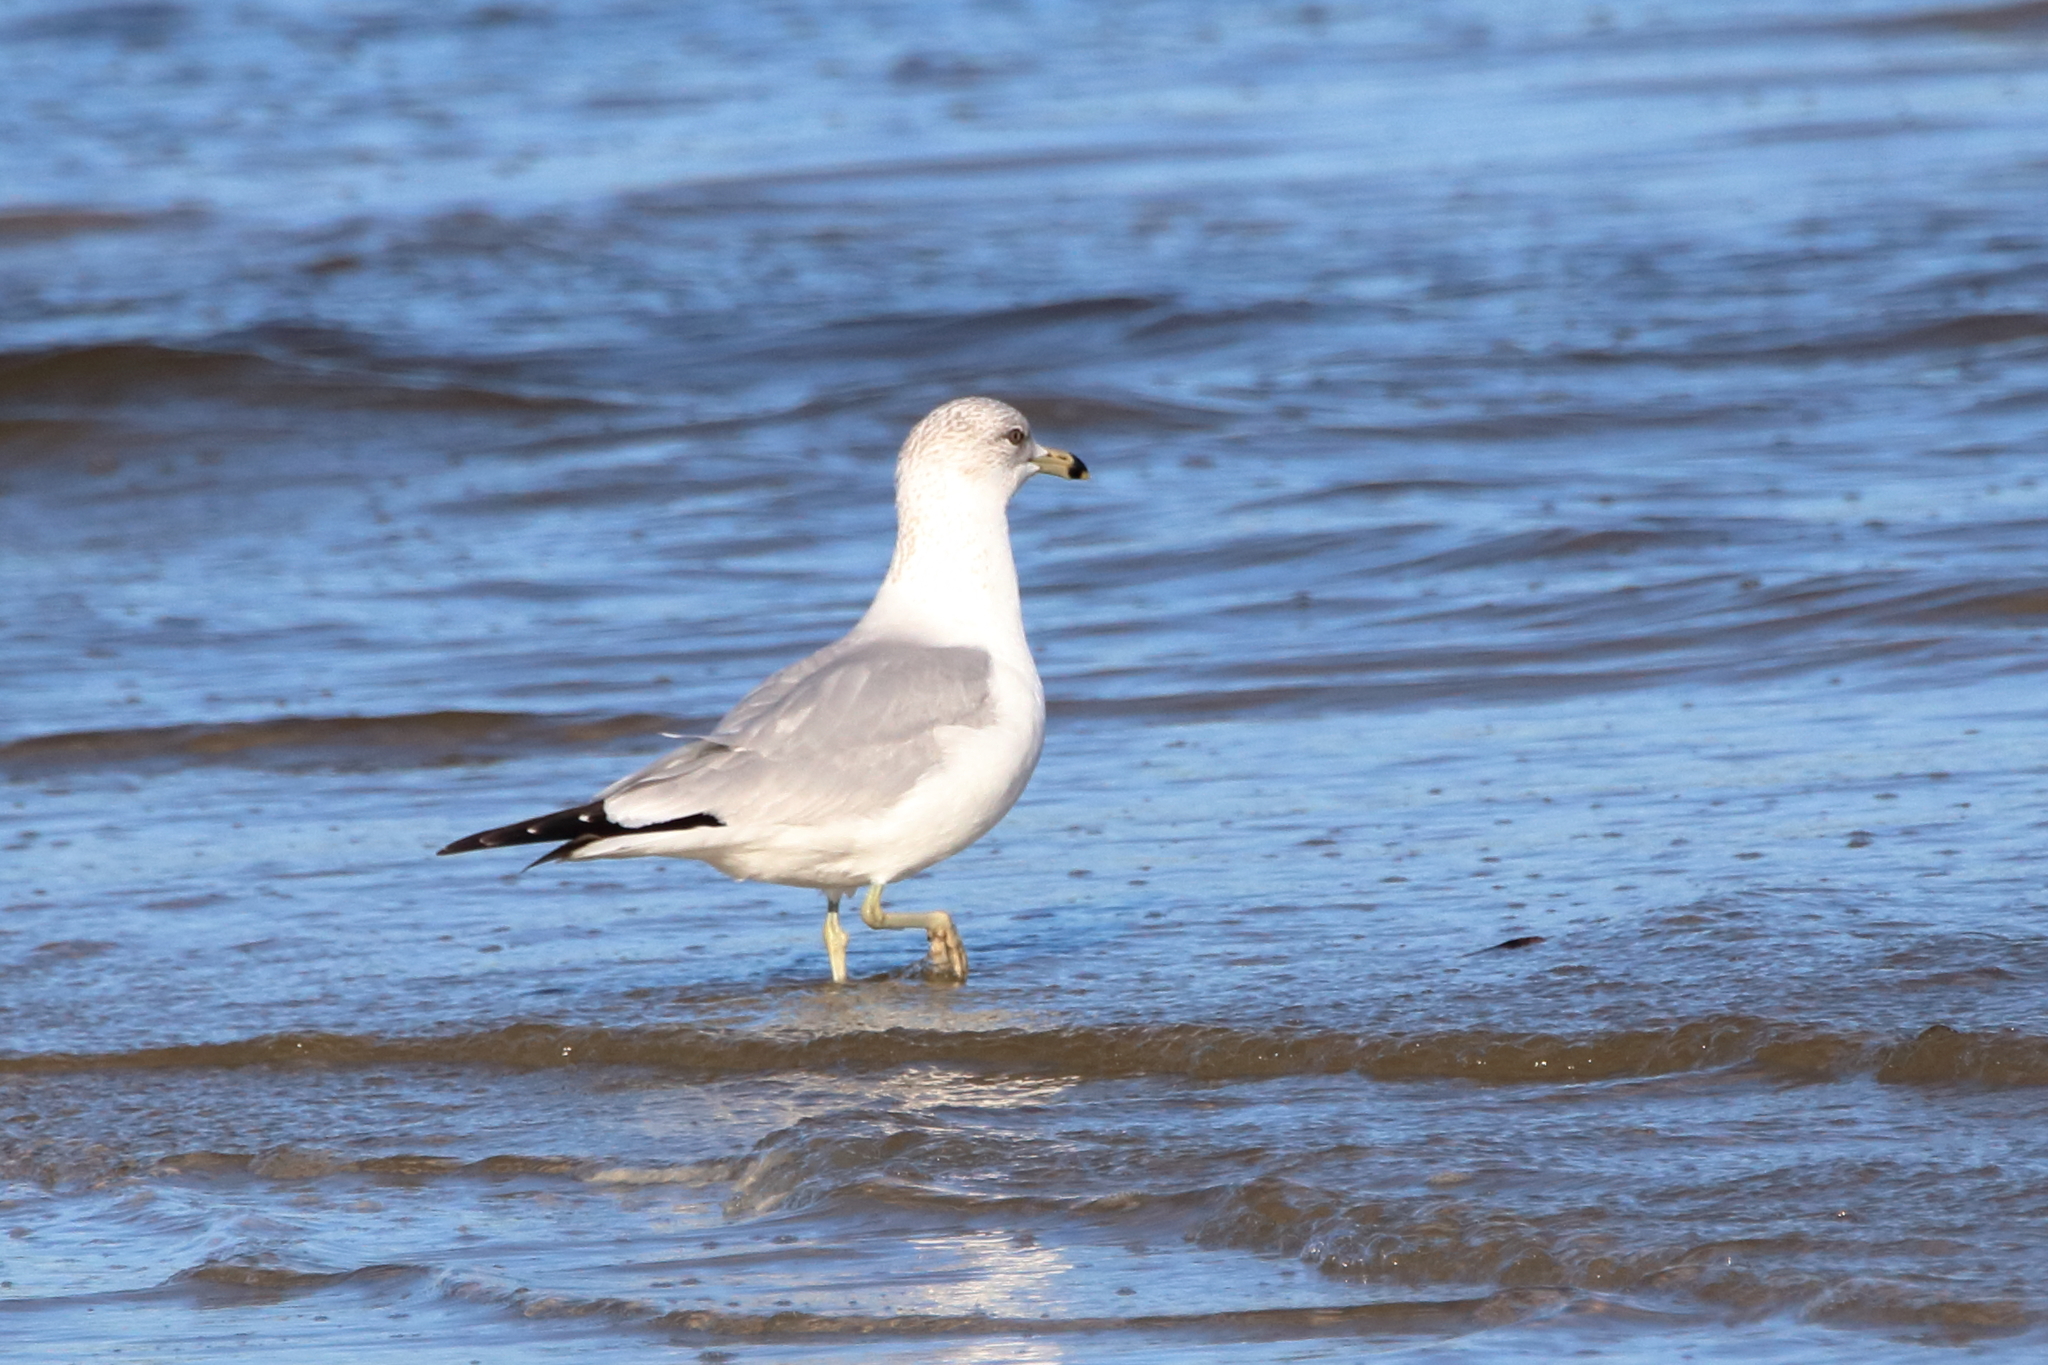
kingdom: Animalia
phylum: Chordata
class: Aves
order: Charadriiformes
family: Laridae
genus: Larus
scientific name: Larus delawarensis
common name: Ring-billed gull
